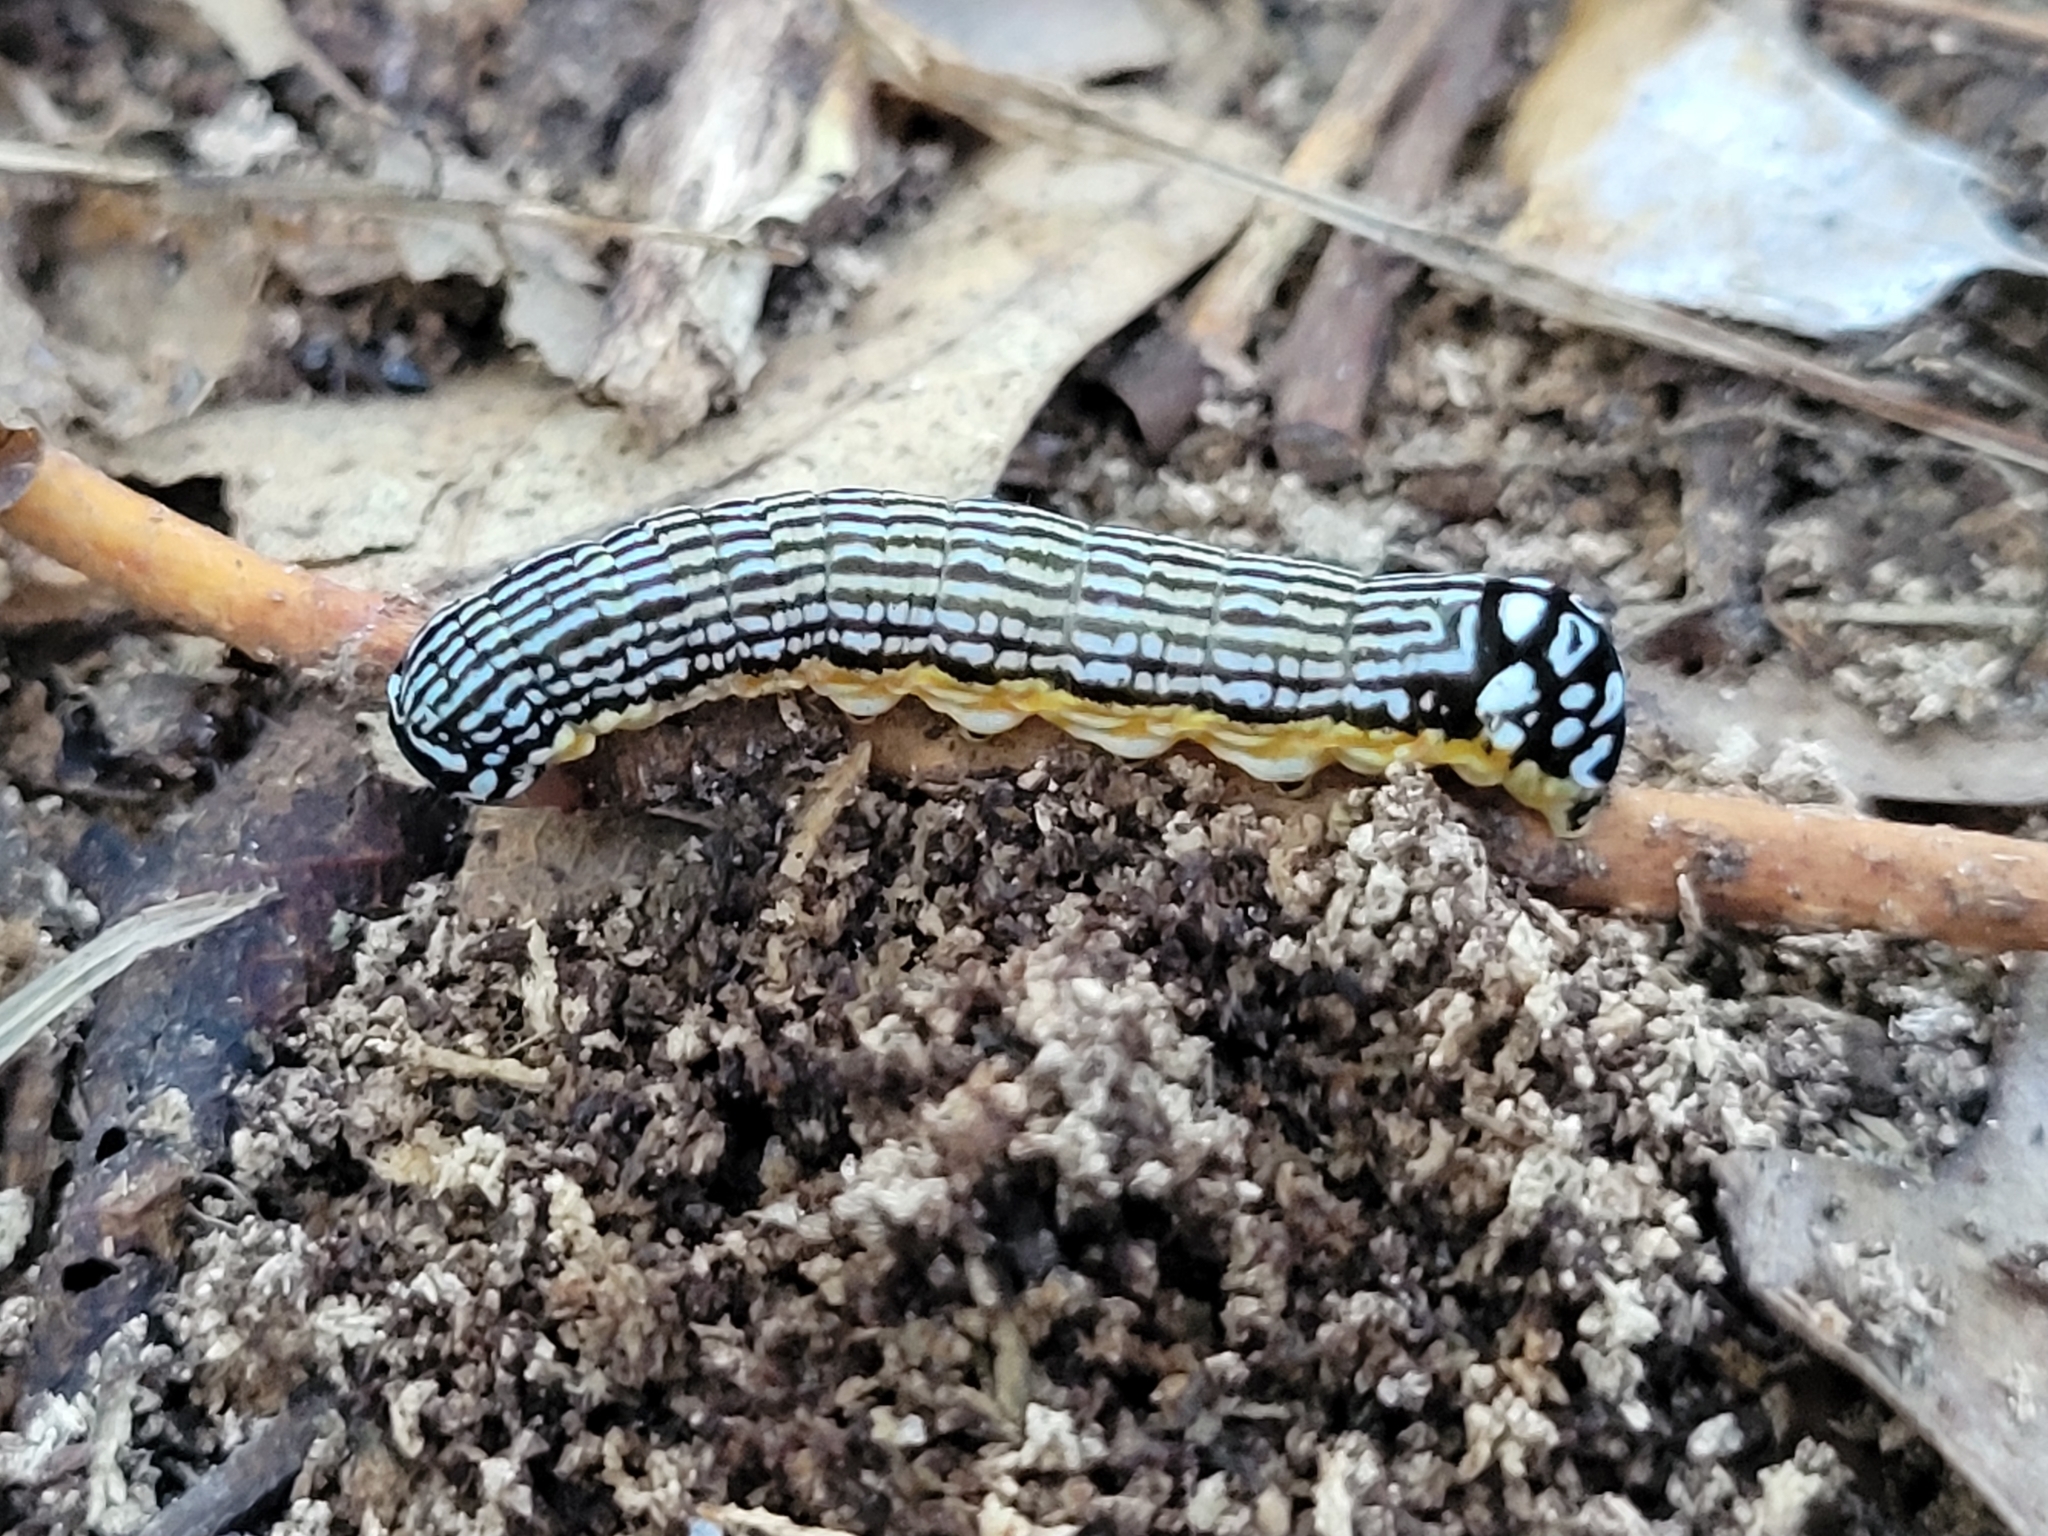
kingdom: Animalia
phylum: Arthropoda
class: Insecta
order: Lepidoptera
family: Noctuidae
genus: Phosphila
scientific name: Phosphila turbulenta
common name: Turbulent phosphila moth
